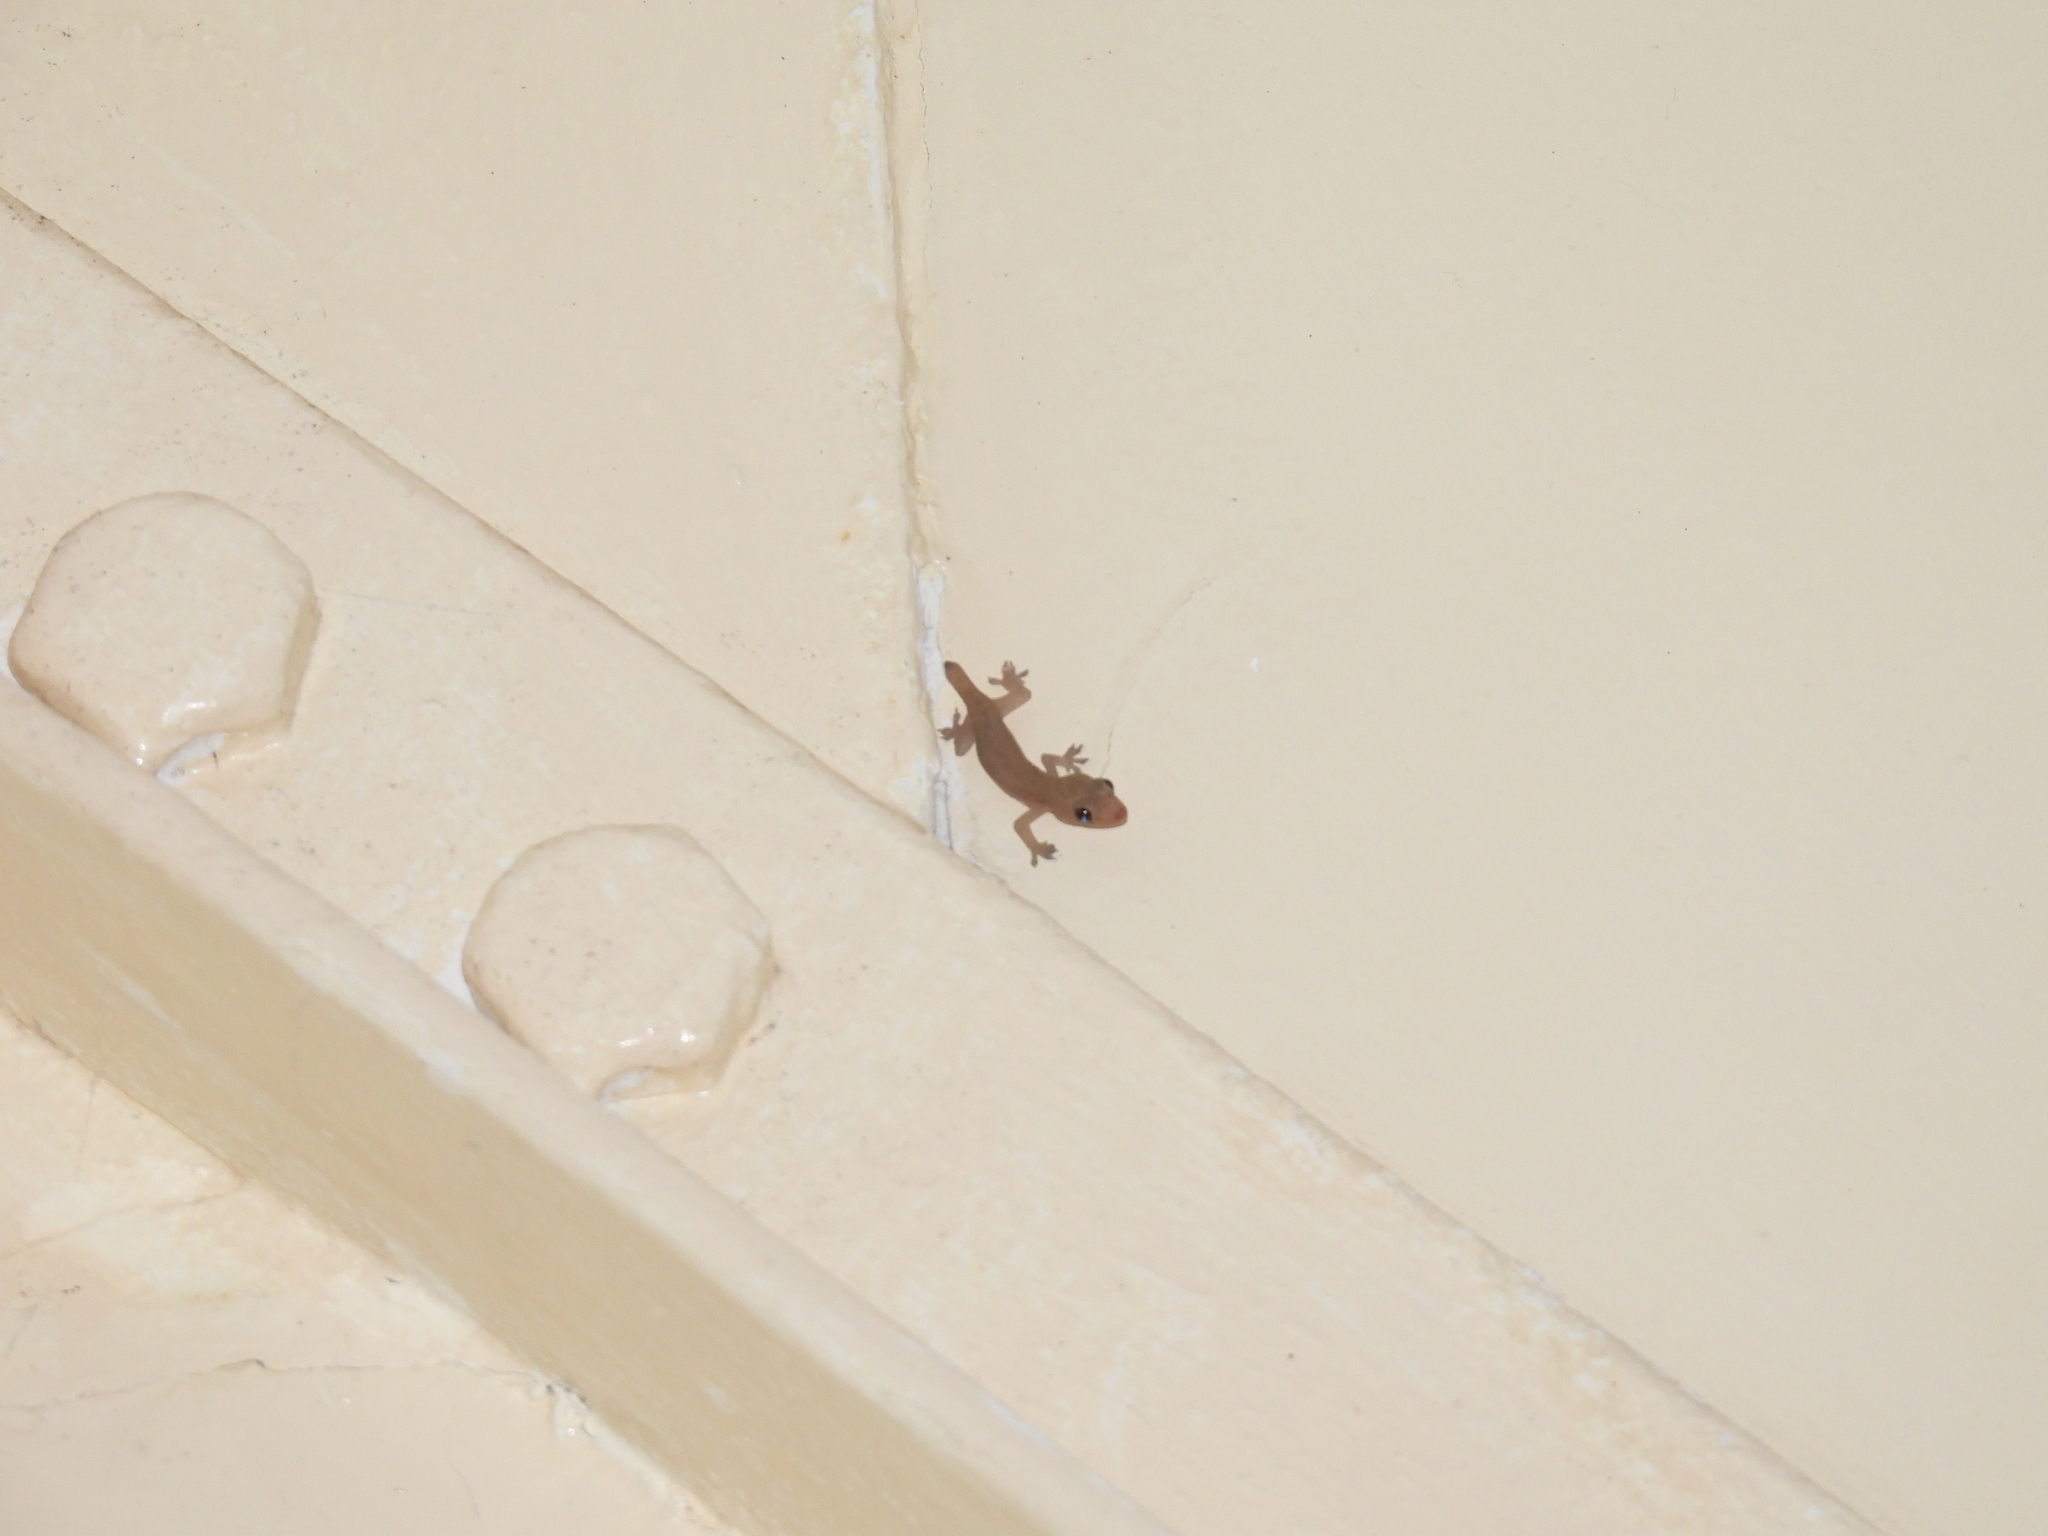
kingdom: Animalia
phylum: Chordata
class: Squamata
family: Gekkonidae
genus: Hemidactylus
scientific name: Hemidactylus frenatus
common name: Common house gecko
